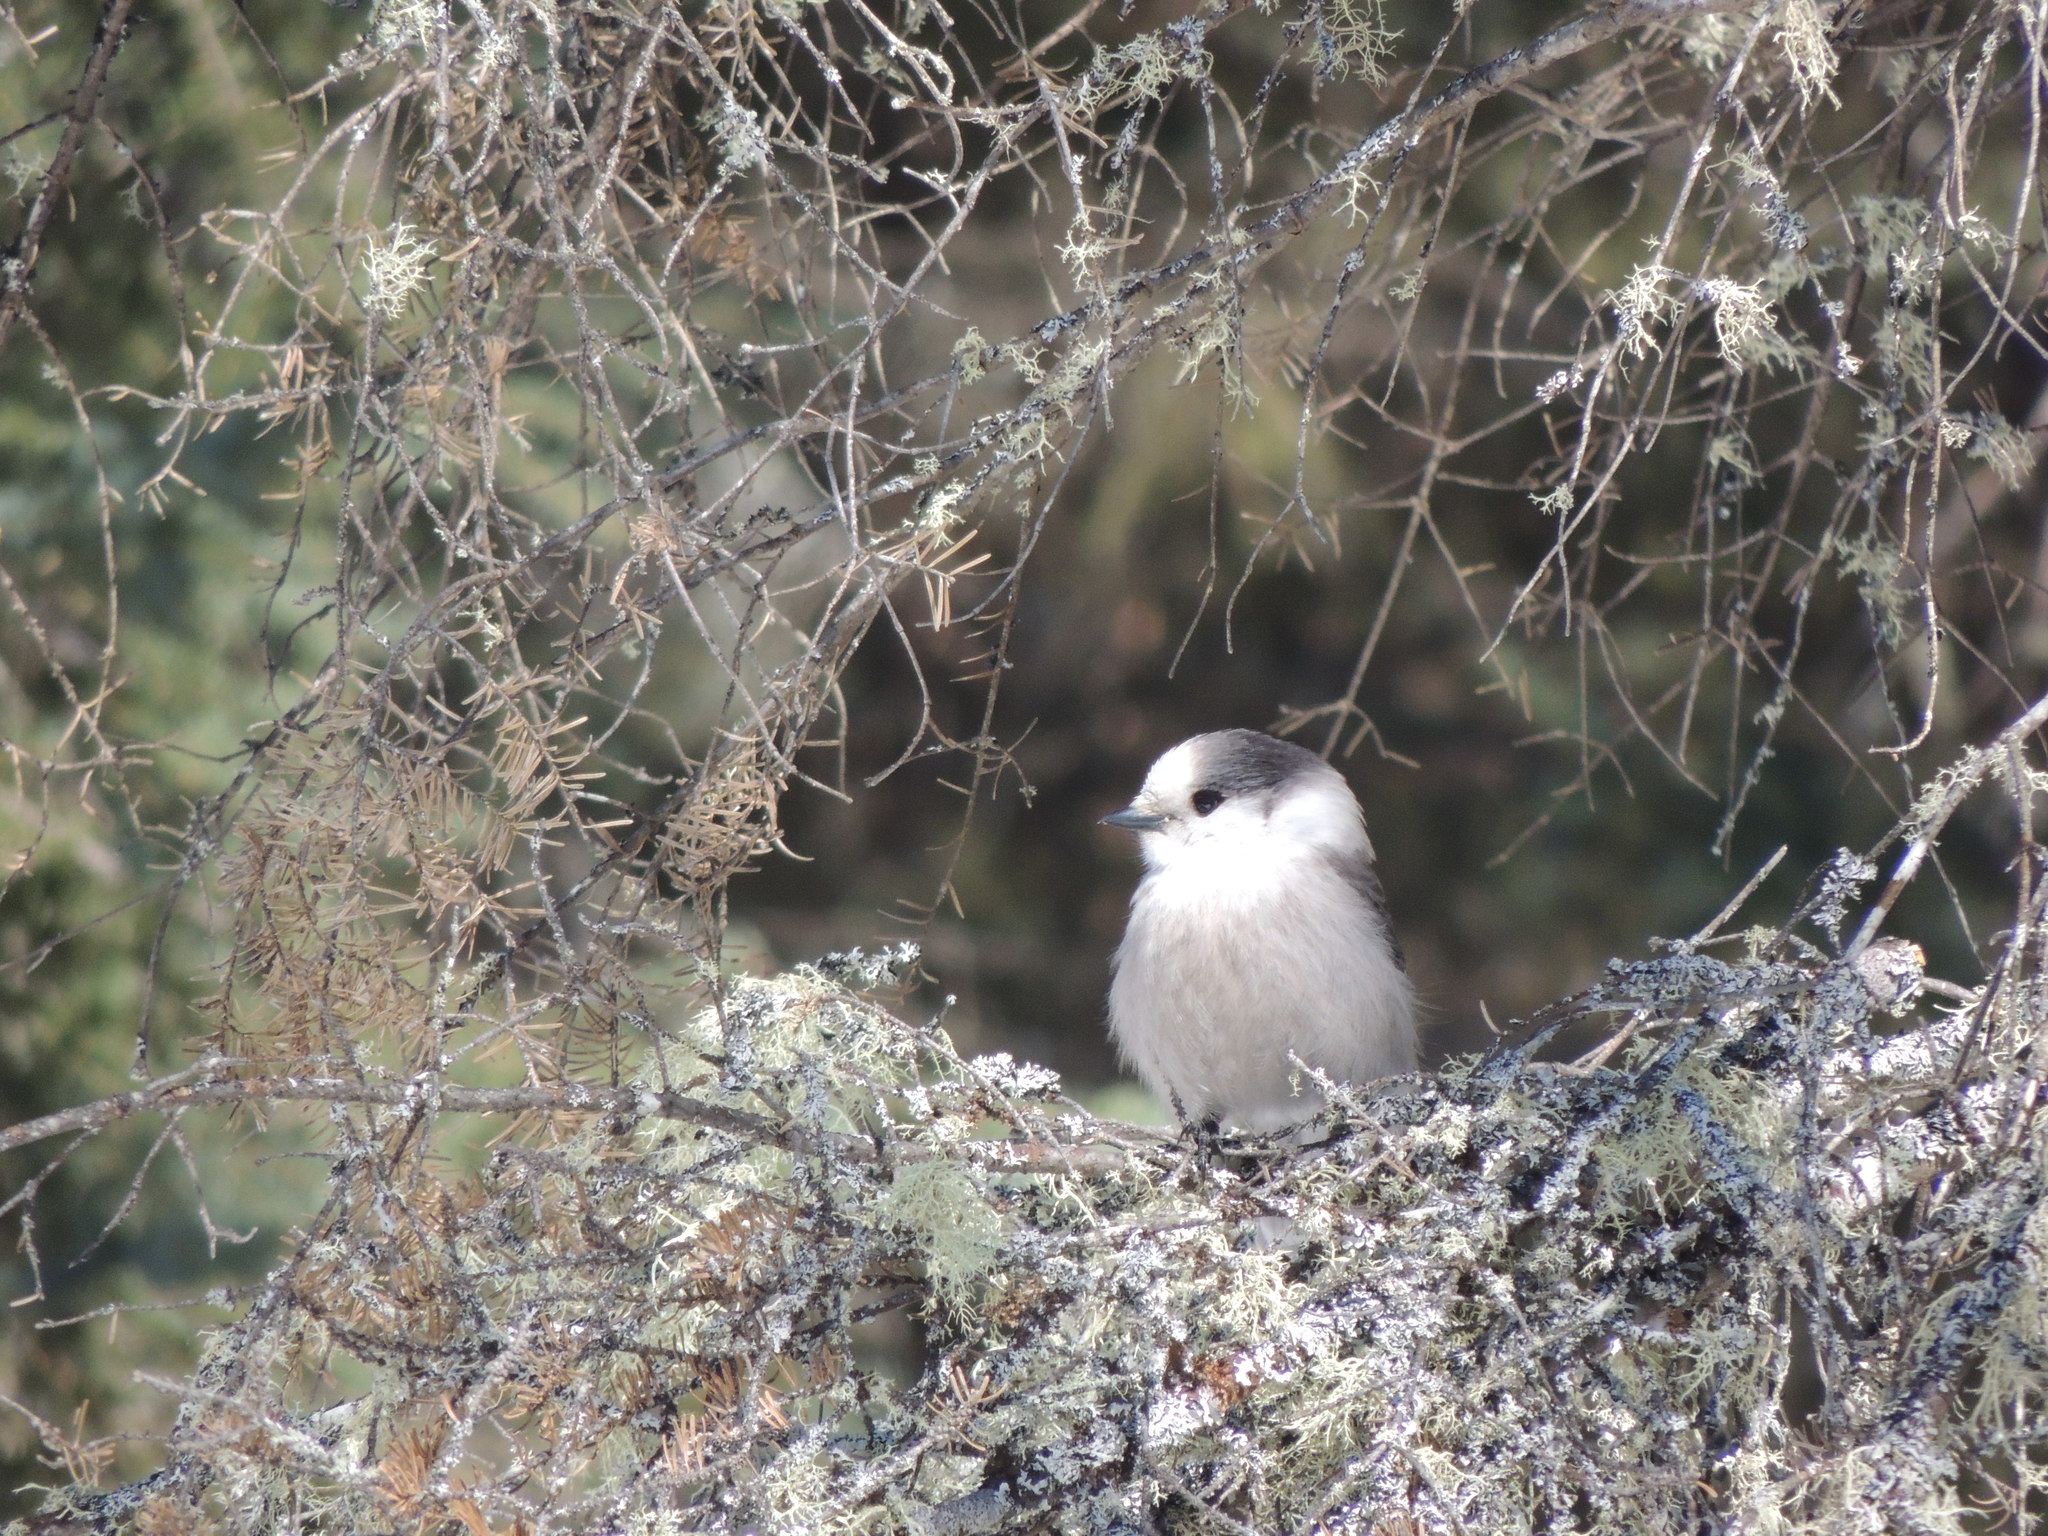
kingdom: Animalia
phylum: Chordata
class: Aves
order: Passeriformes
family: Corvidae
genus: Perisoreus
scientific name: Perisoreus canadensis
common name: Gray jay
